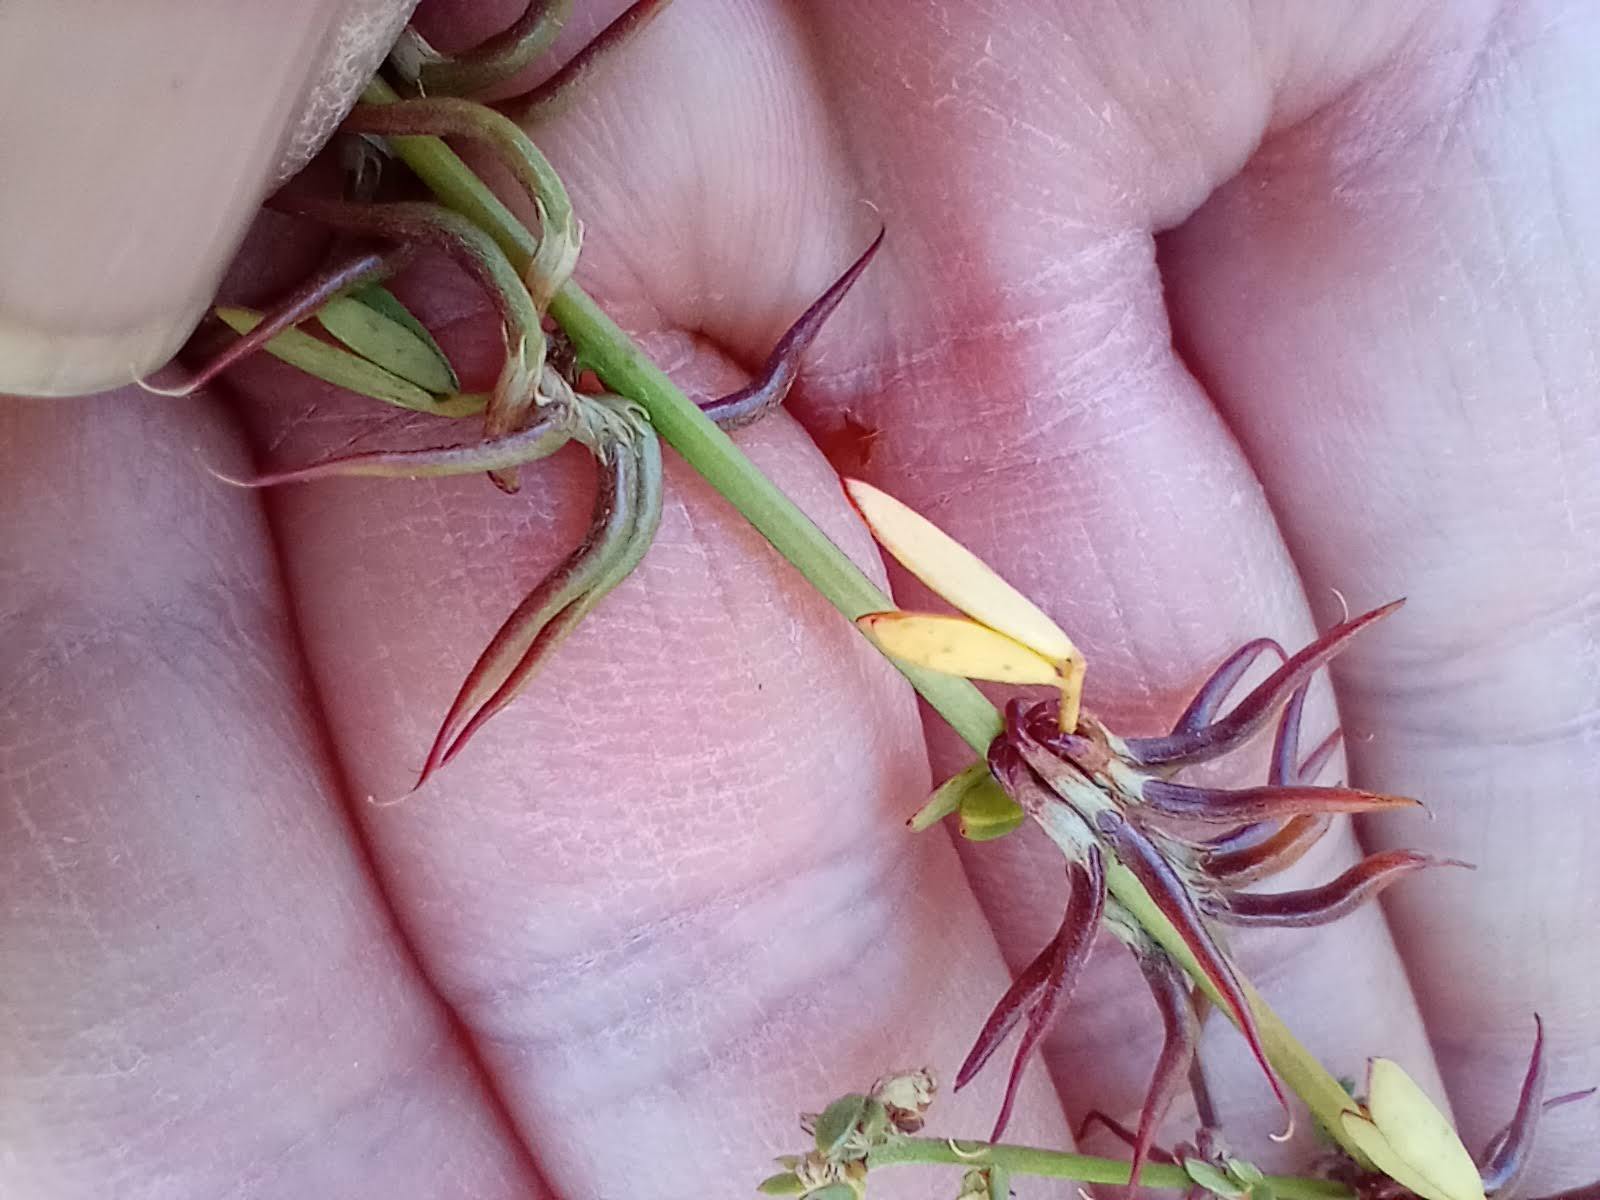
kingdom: Plantae
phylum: Tracheophyta
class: Magnoliopsida
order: Fabales
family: Fabaceae
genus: Acmispon
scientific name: Acmispon glaber
